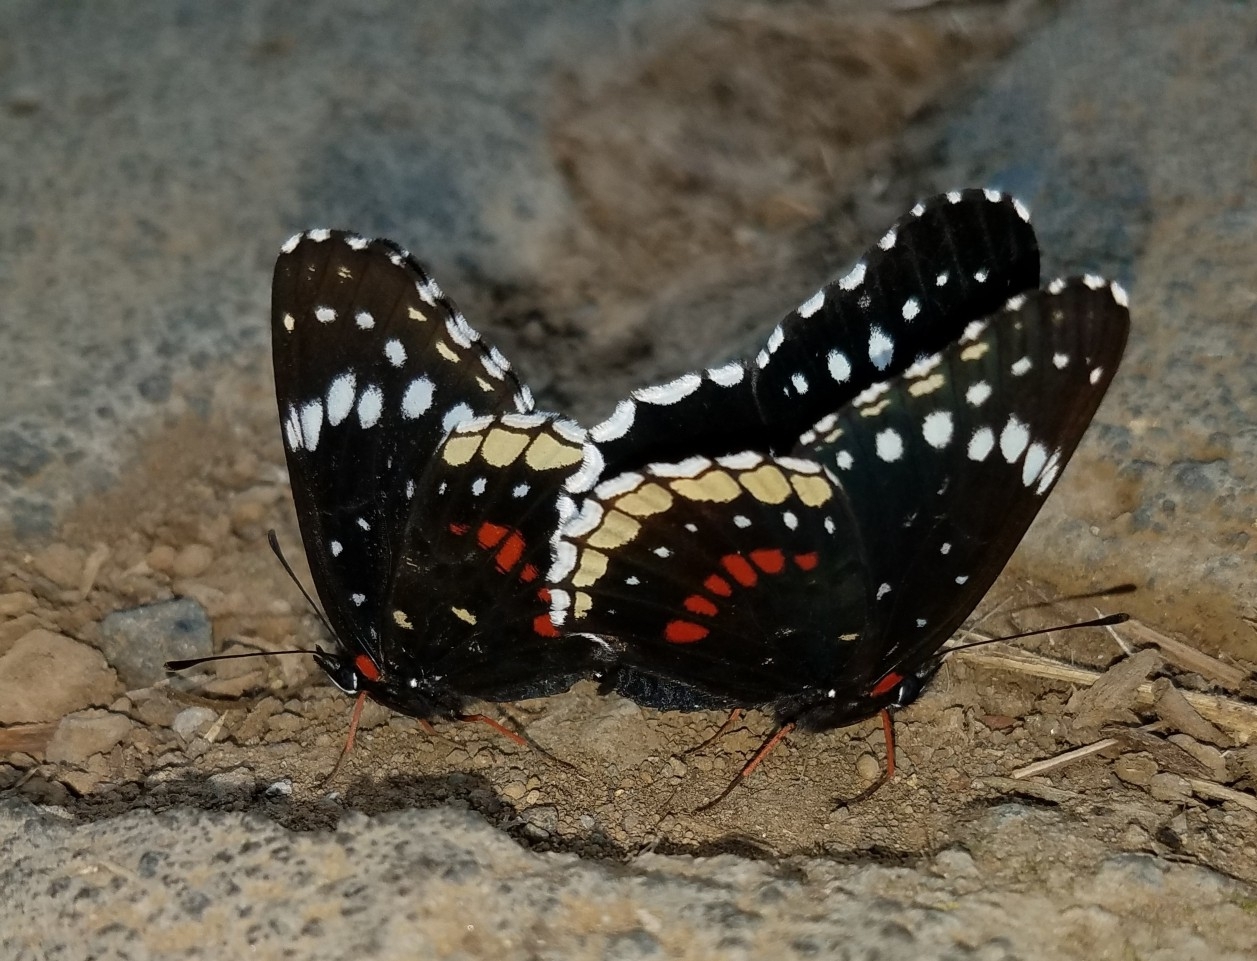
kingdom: Animalia
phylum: Arthropoda
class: Insecta
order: Lepidoptera
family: Nymphalidae
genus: Chlosyne
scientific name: Chlosyne hippodrome
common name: Simple patch
